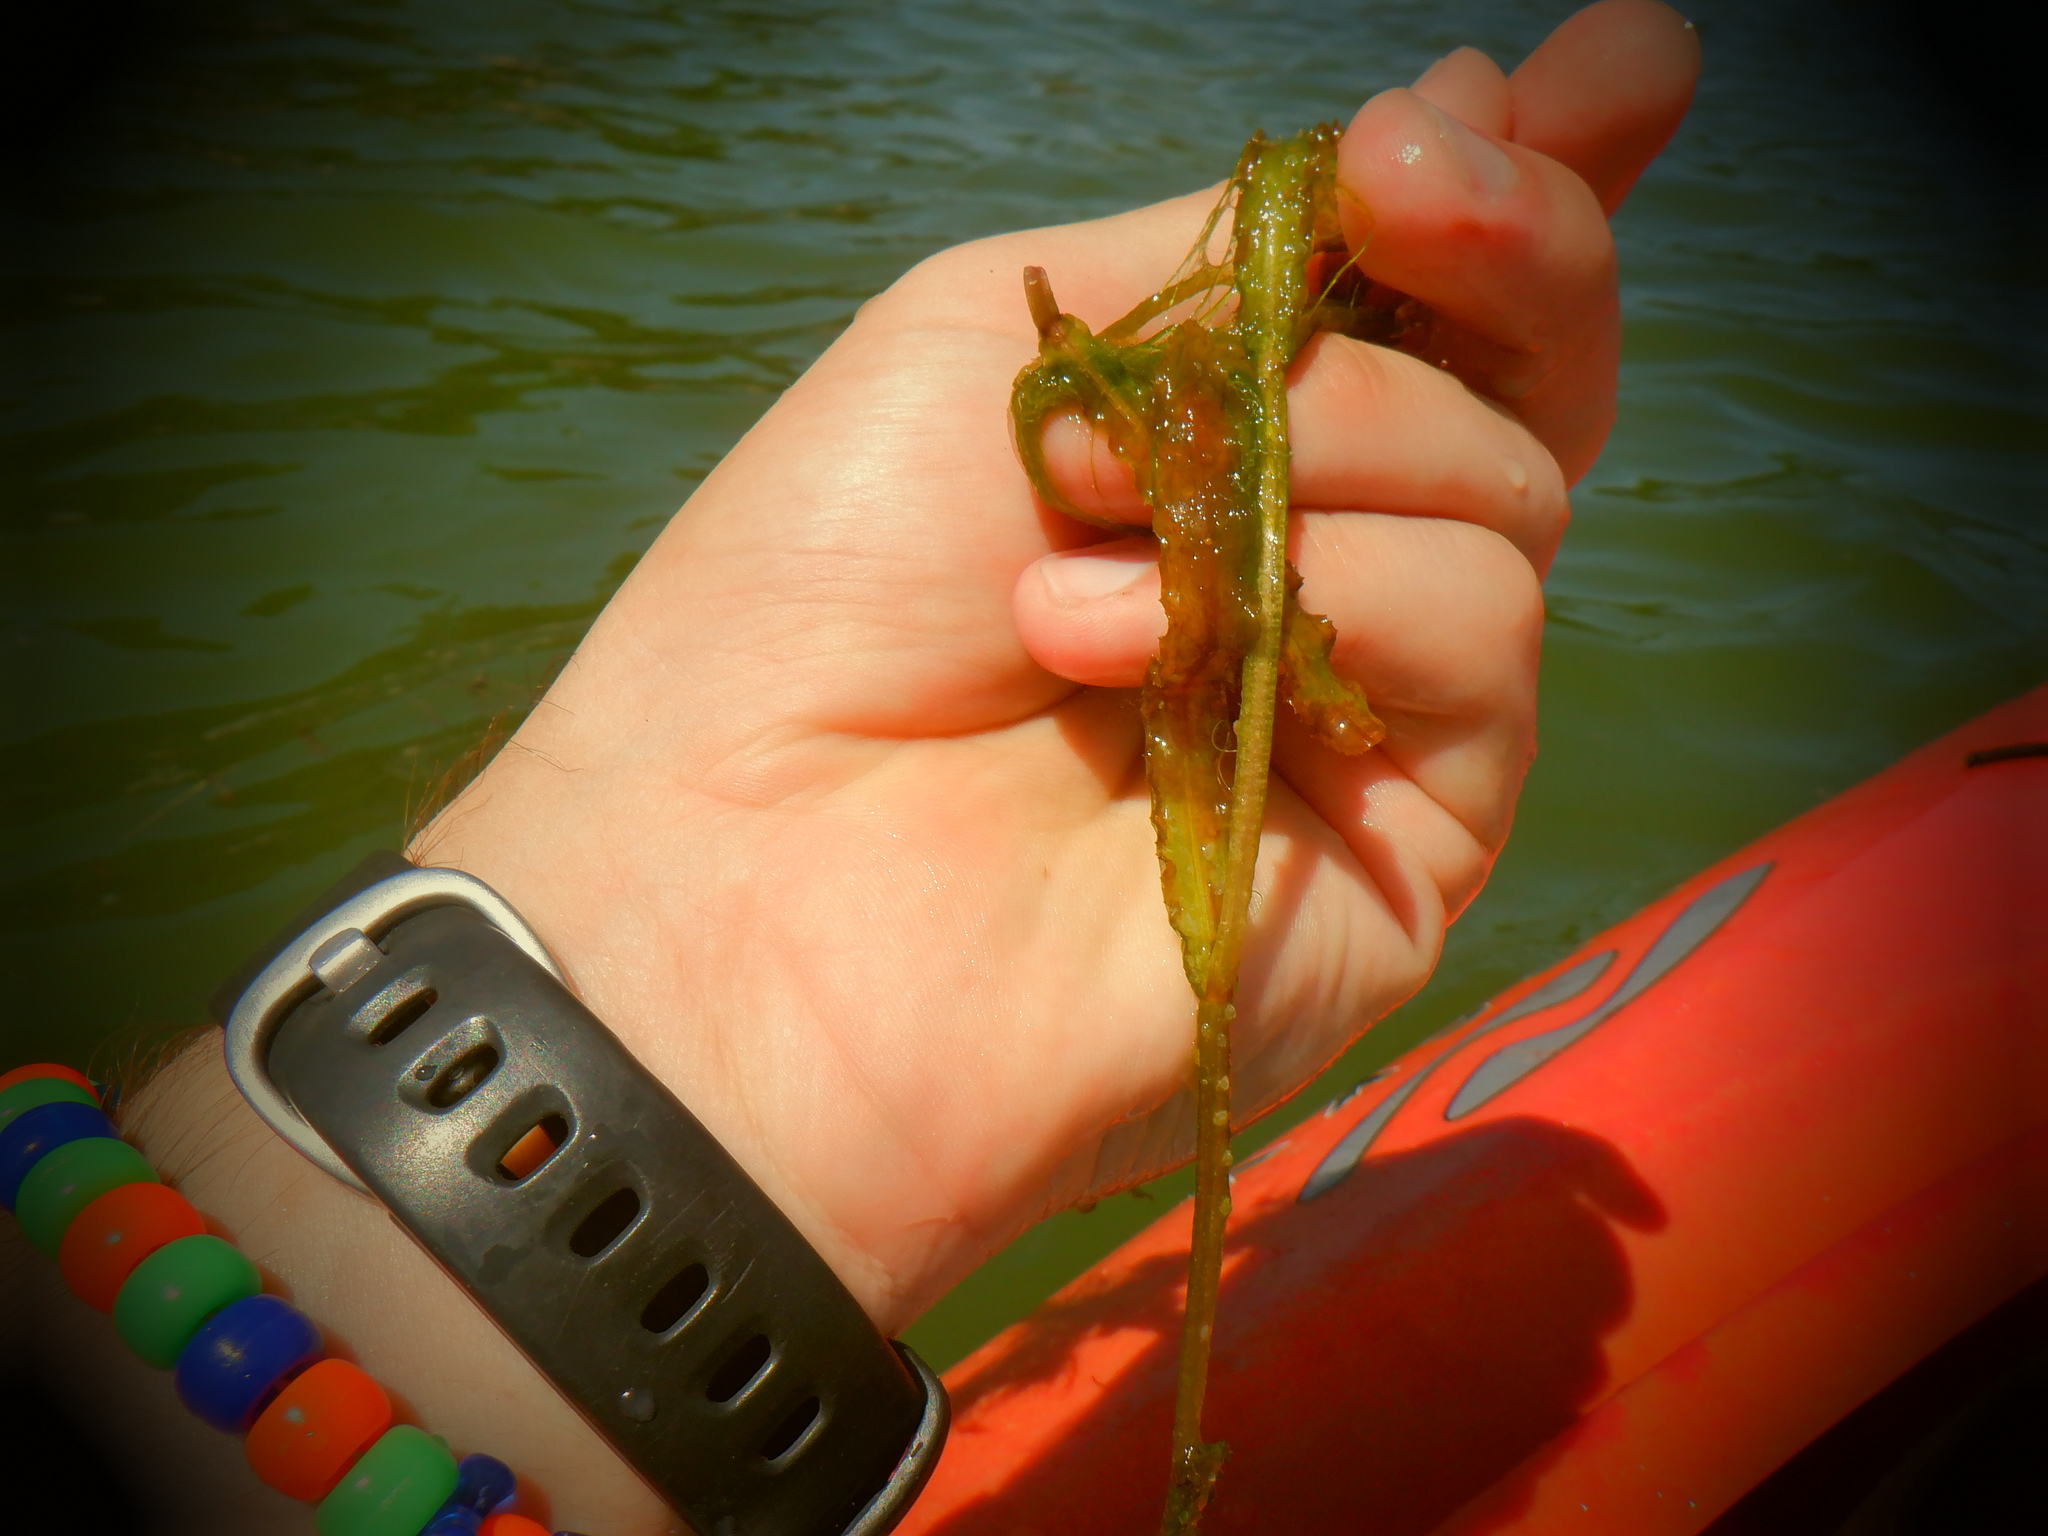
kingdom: Plantae
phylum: Tracheophyta
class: Liliopsida
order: Alismatales
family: Potamogetonaceae
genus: Potamogeton
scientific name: Potamogeton crispus
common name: Curled pondweed
